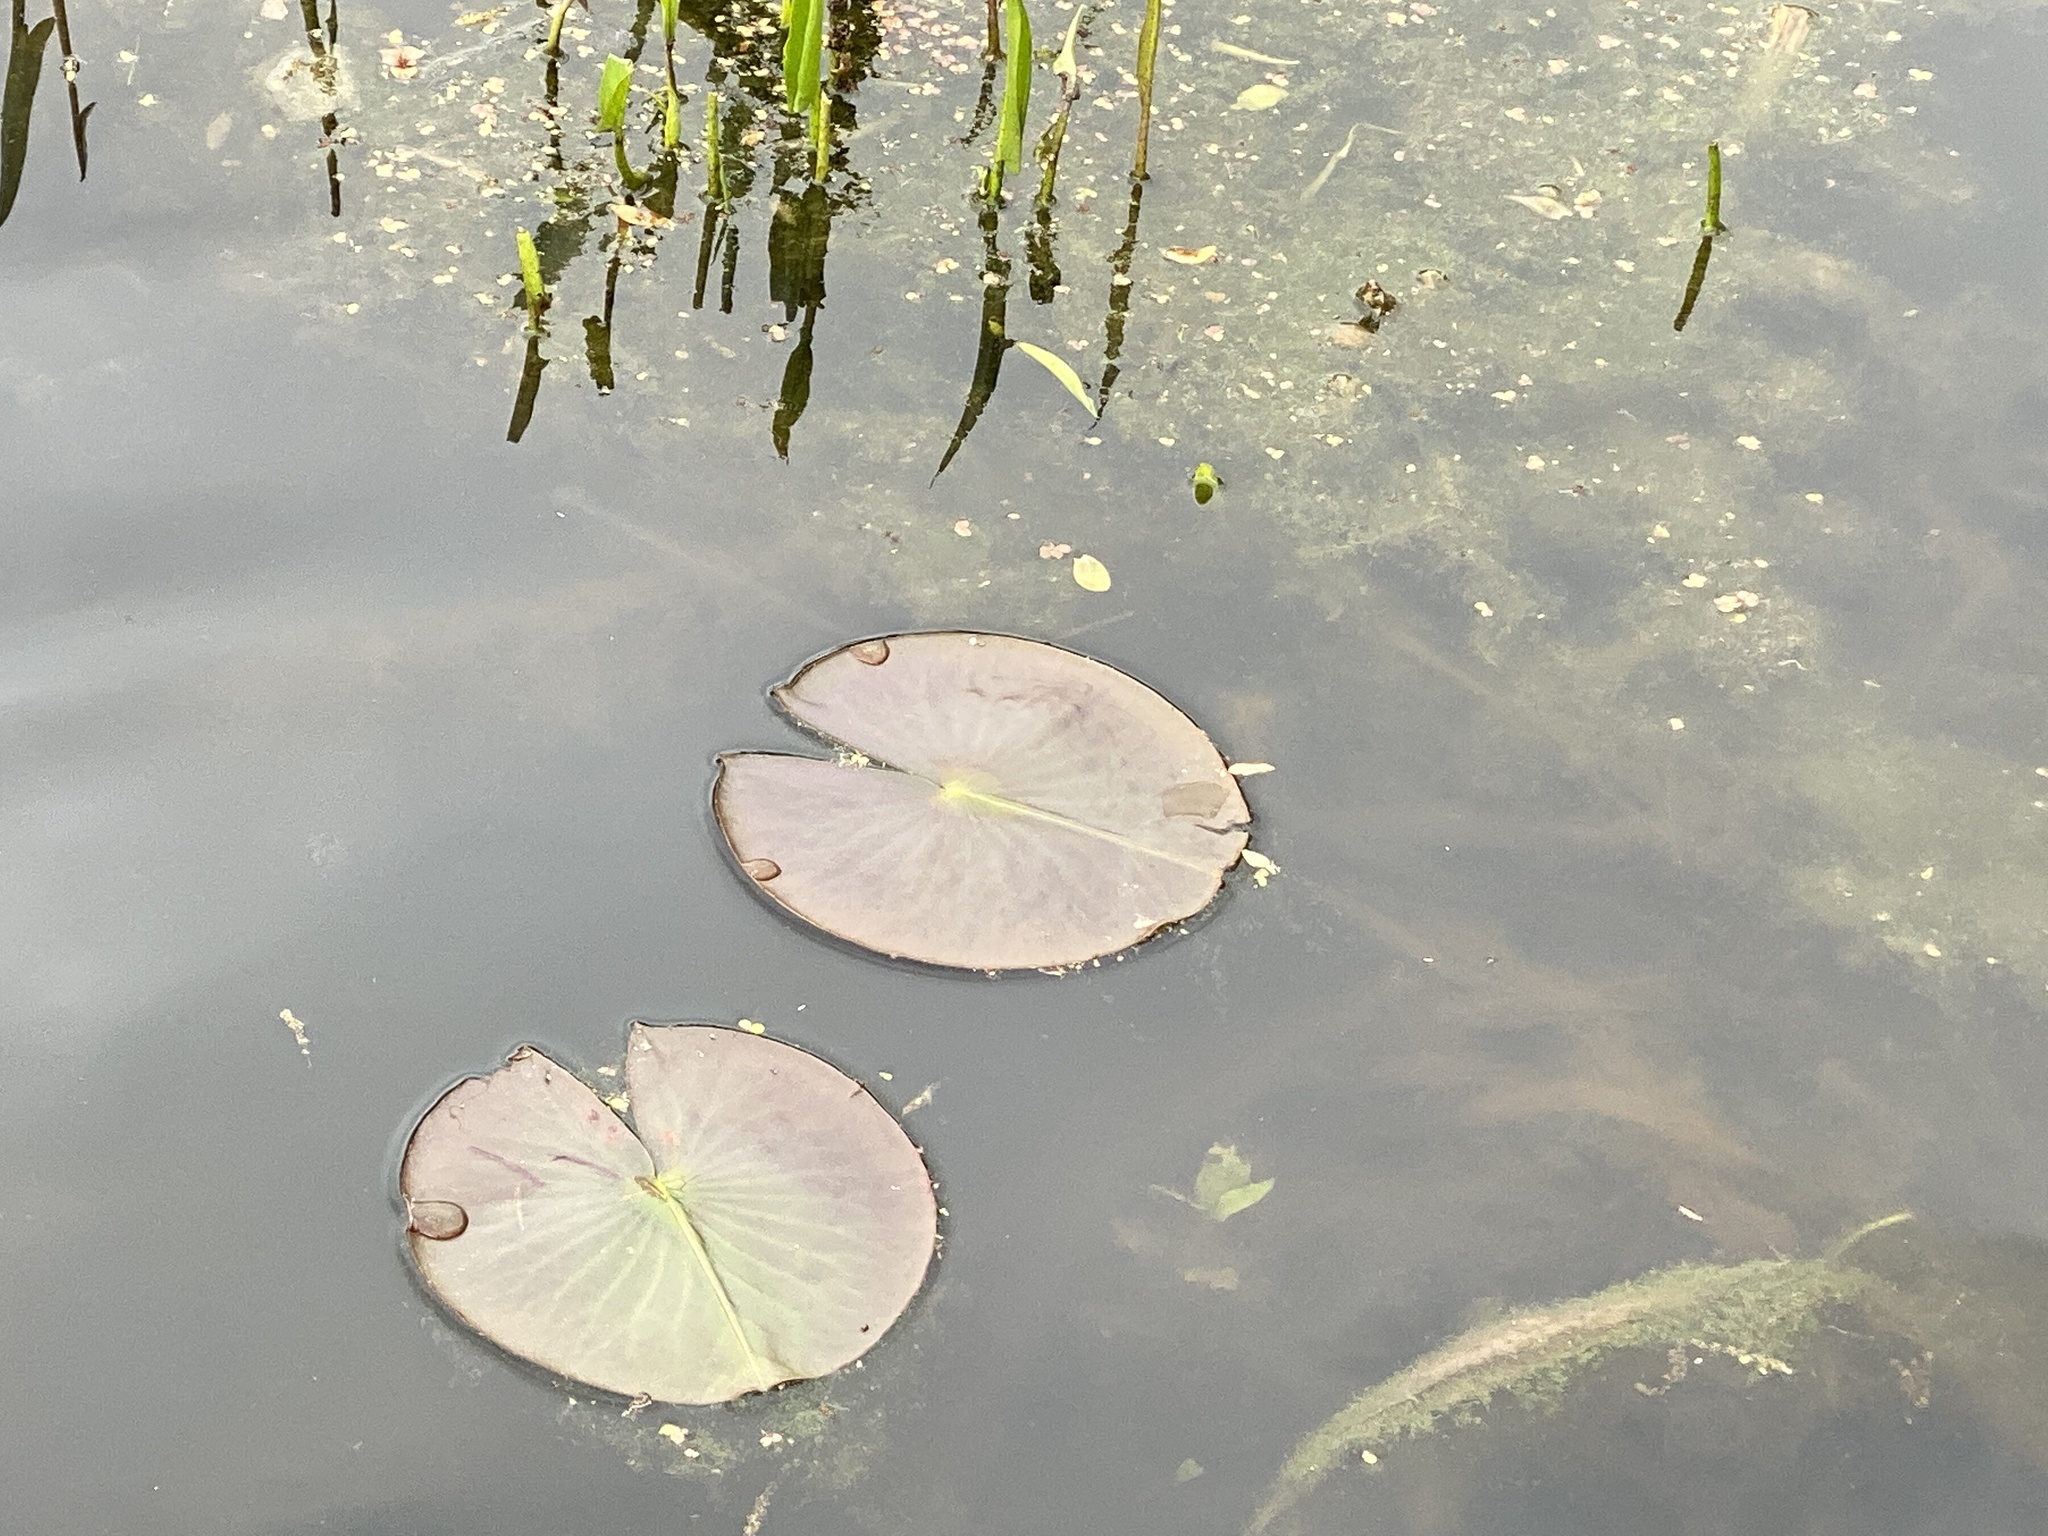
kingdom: Plantae
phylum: Tracheophyta
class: Magnoliopsida
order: Nymphaeales
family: Nymphaeaceae
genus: Nymphaea
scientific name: Nymphaea odorata
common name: Fragrant water-lily
